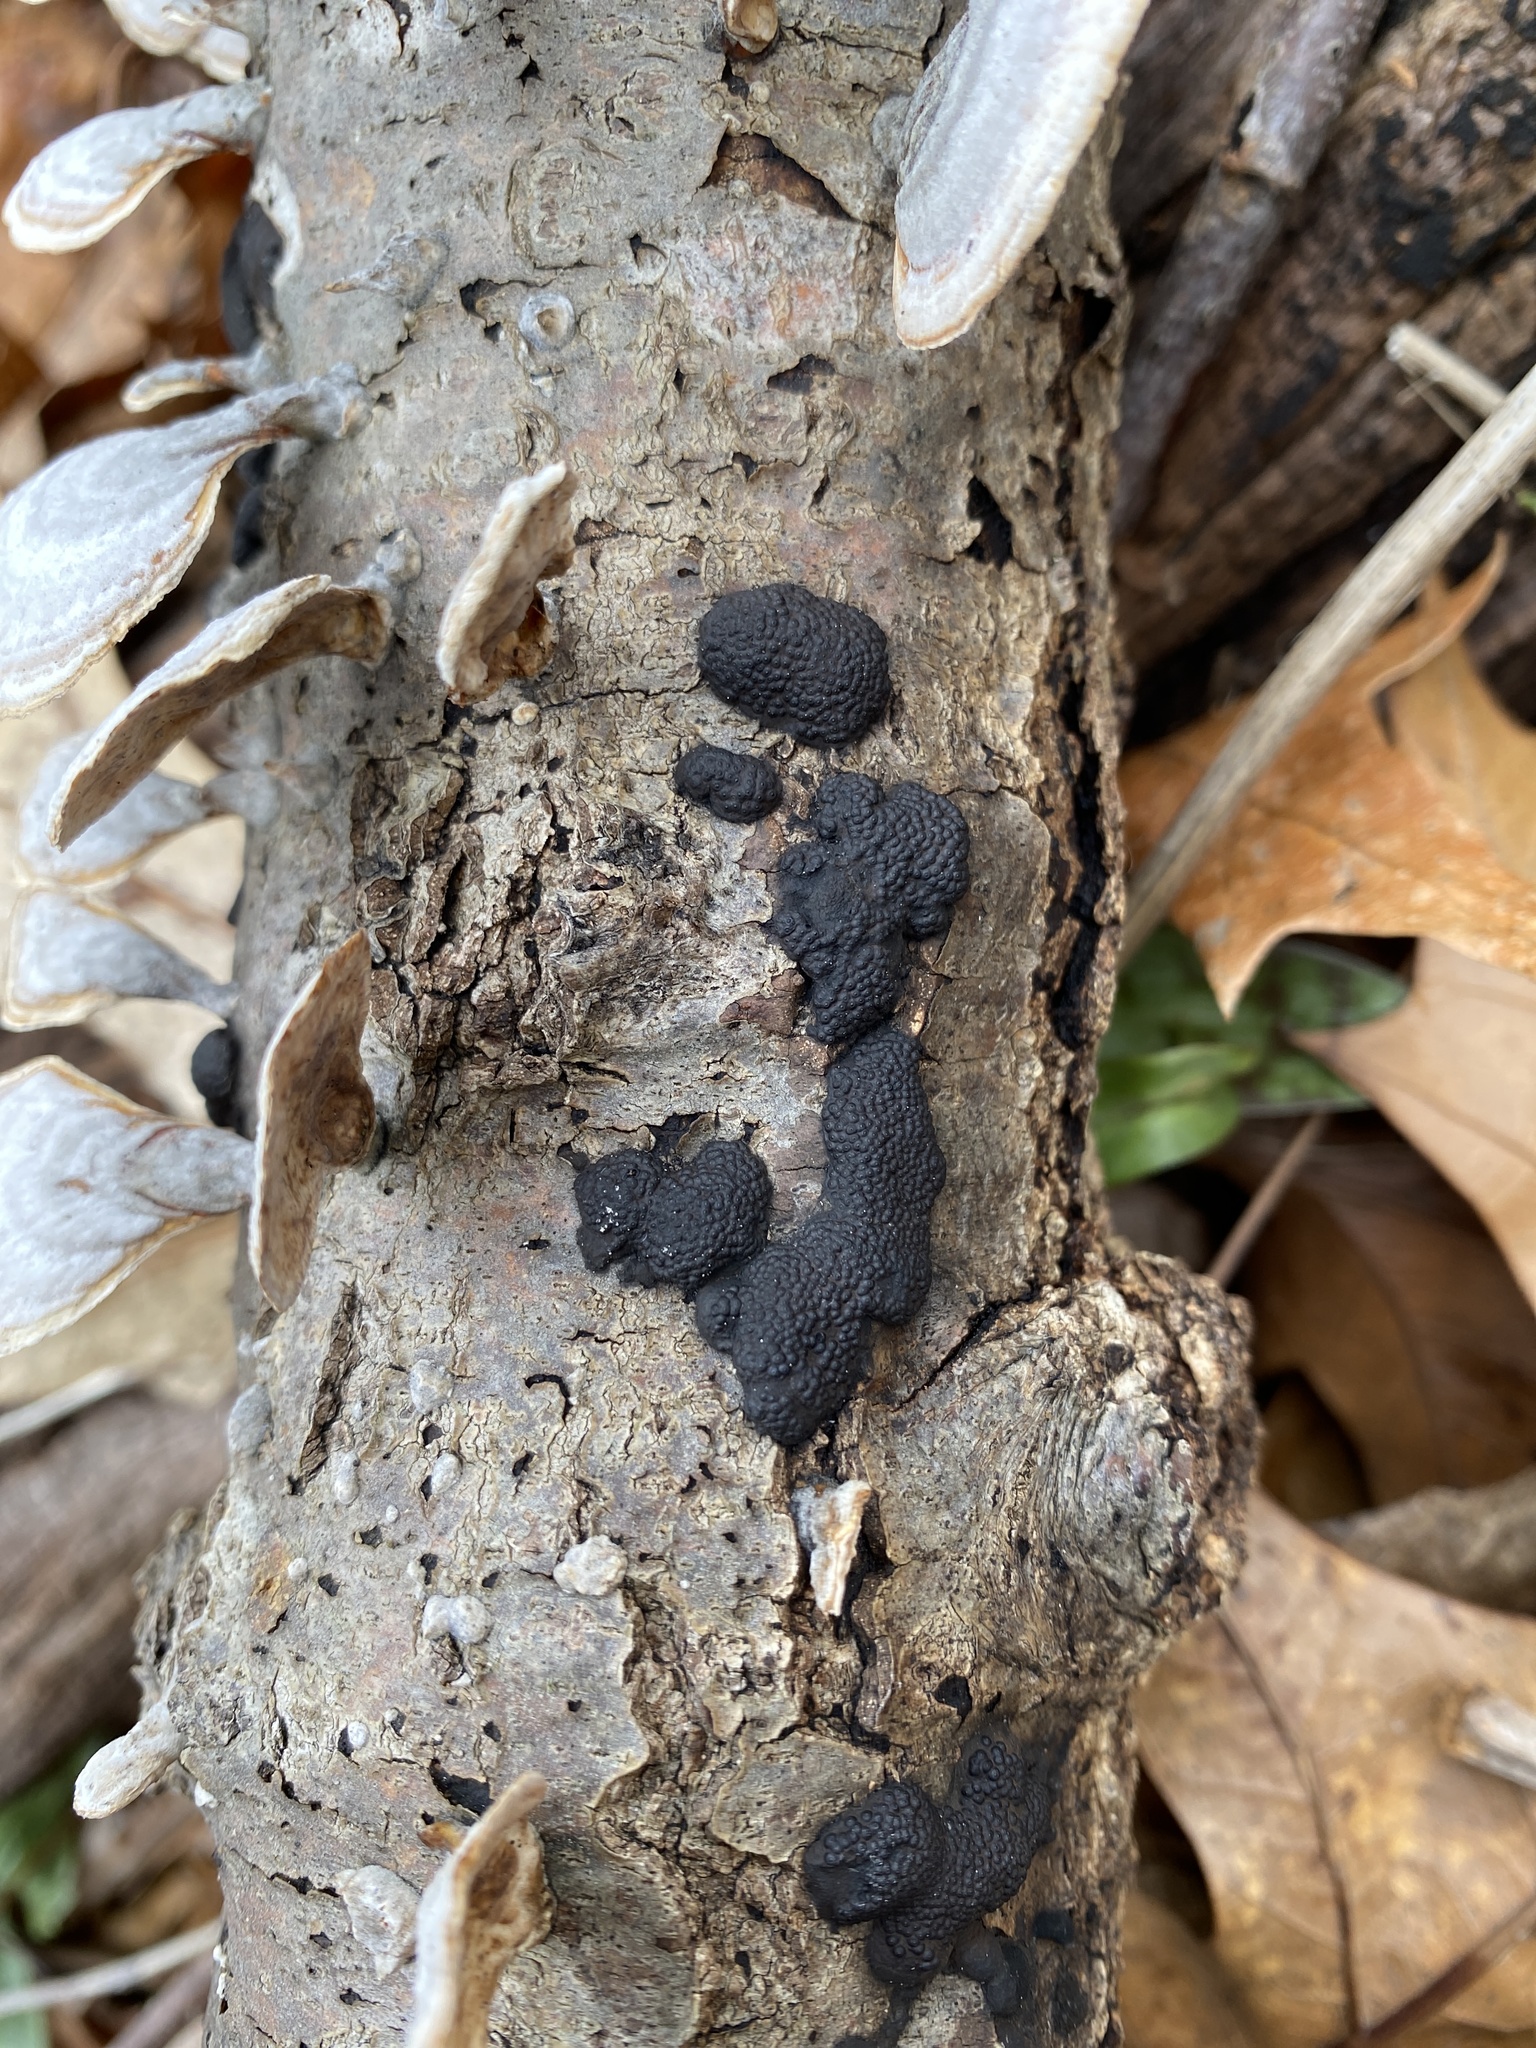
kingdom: Fungi
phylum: Ascomycota
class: Sordariomycetes
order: Xylariales
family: Hypoxylaceae
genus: Annulohypoxylon
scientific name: Annulohypoxylon annulatum
